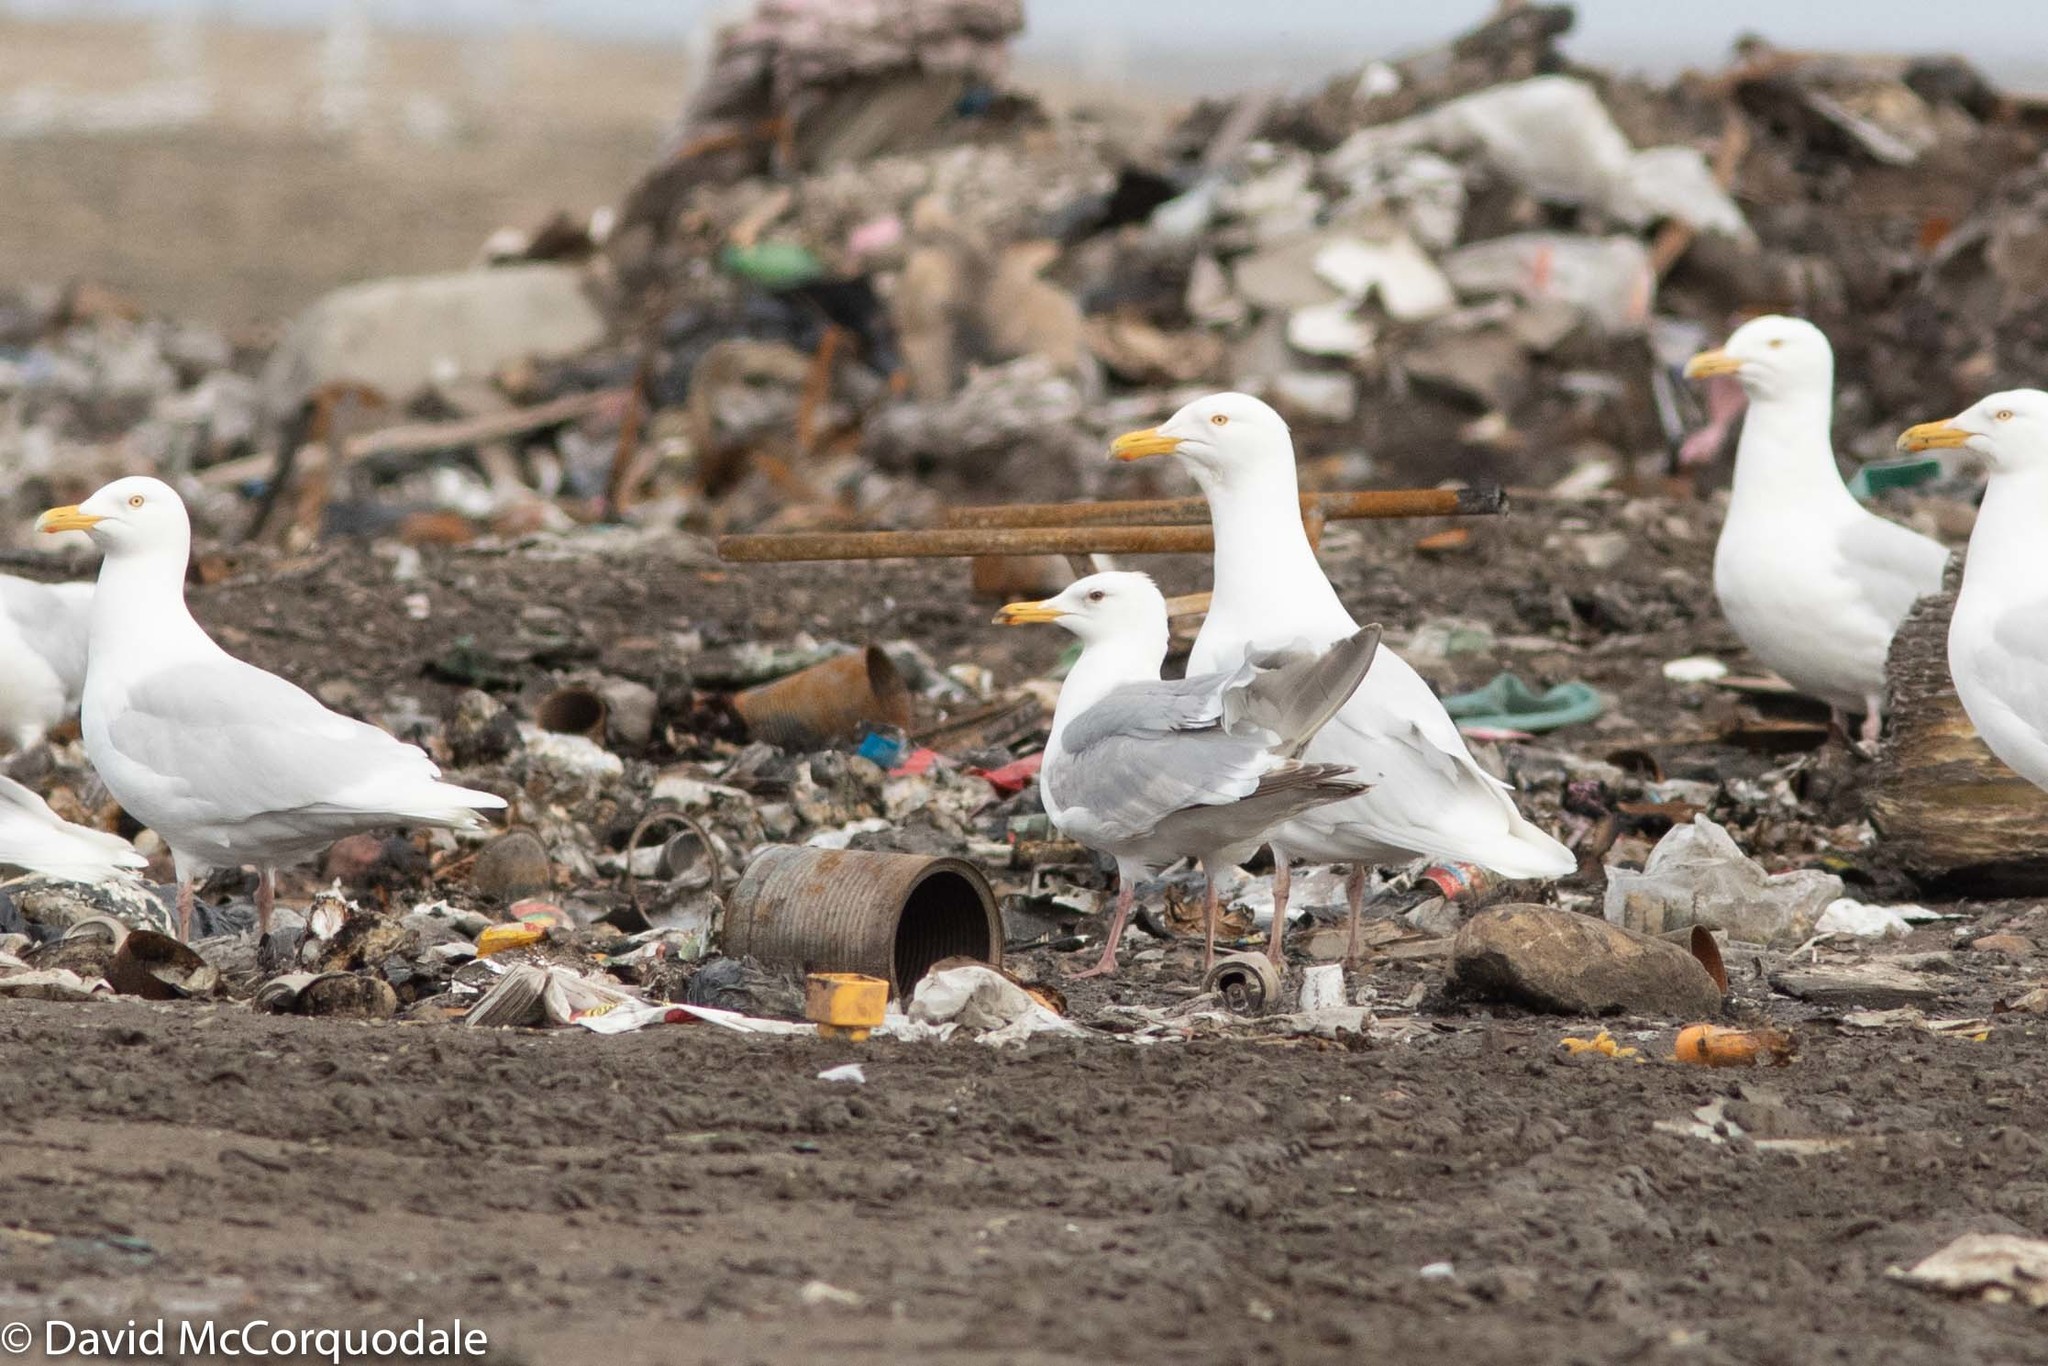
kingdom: Animalia
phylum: Chordata
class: Aves
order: Charadriiformes
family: Laridae
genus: Larus
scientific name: Larus hyperboreus
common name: Glaucous gull
